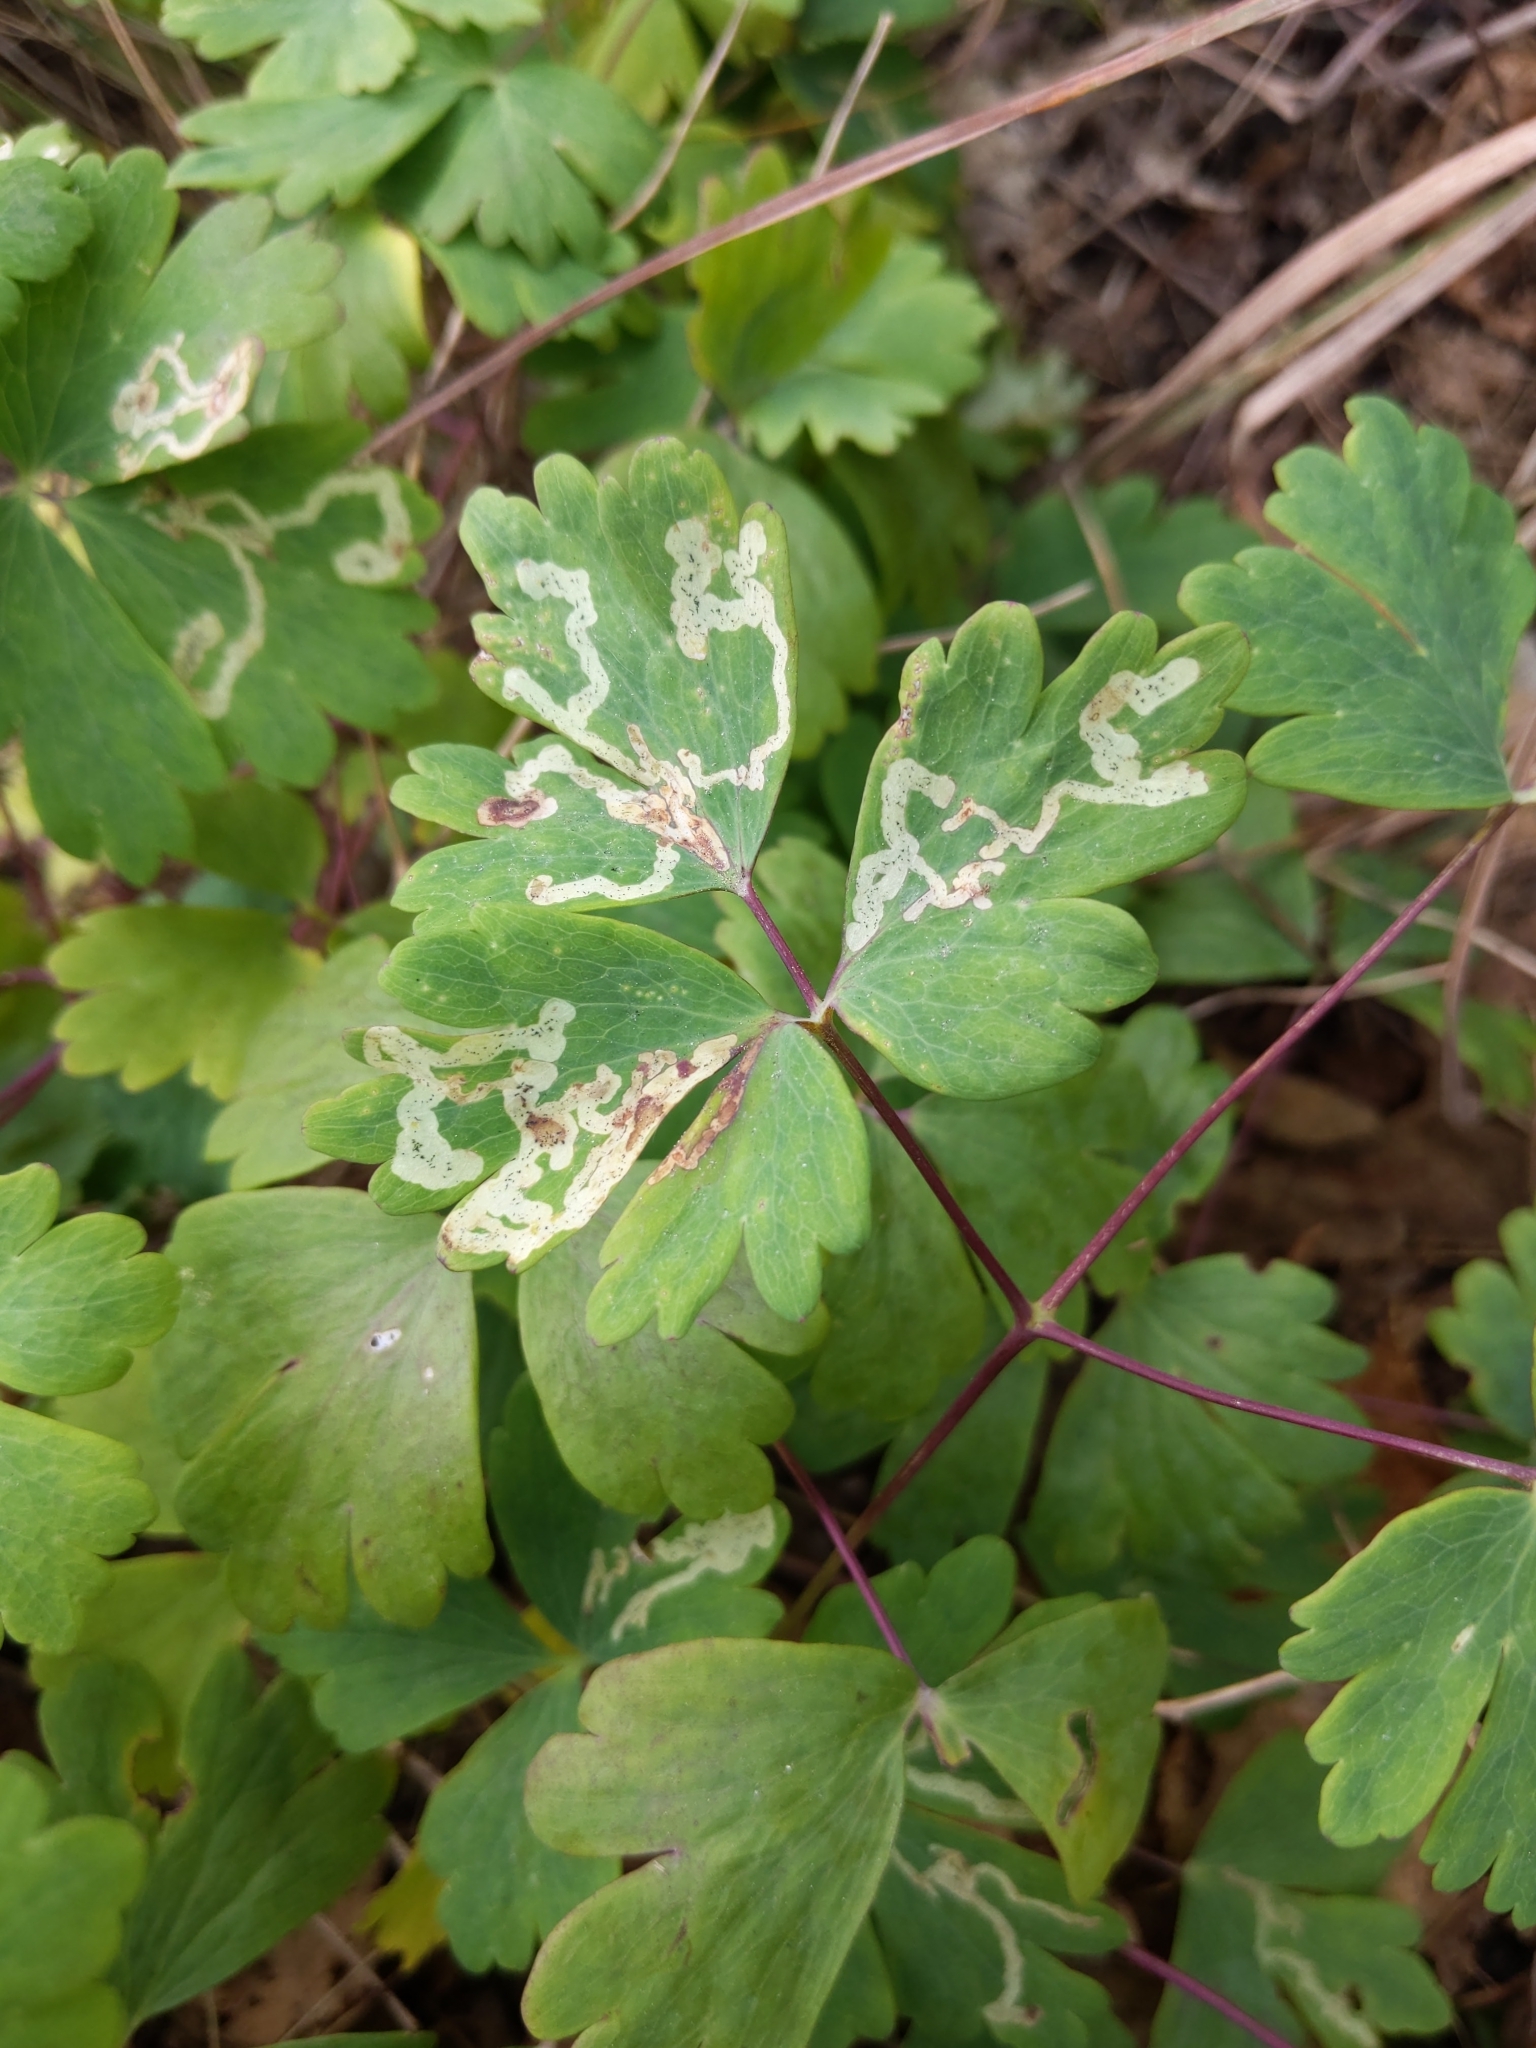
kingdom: Animalia
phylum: Arthropoda
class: Insecta
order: Diptera
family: Agromyzidae
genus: Phytomyza
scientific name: Phytomyza
